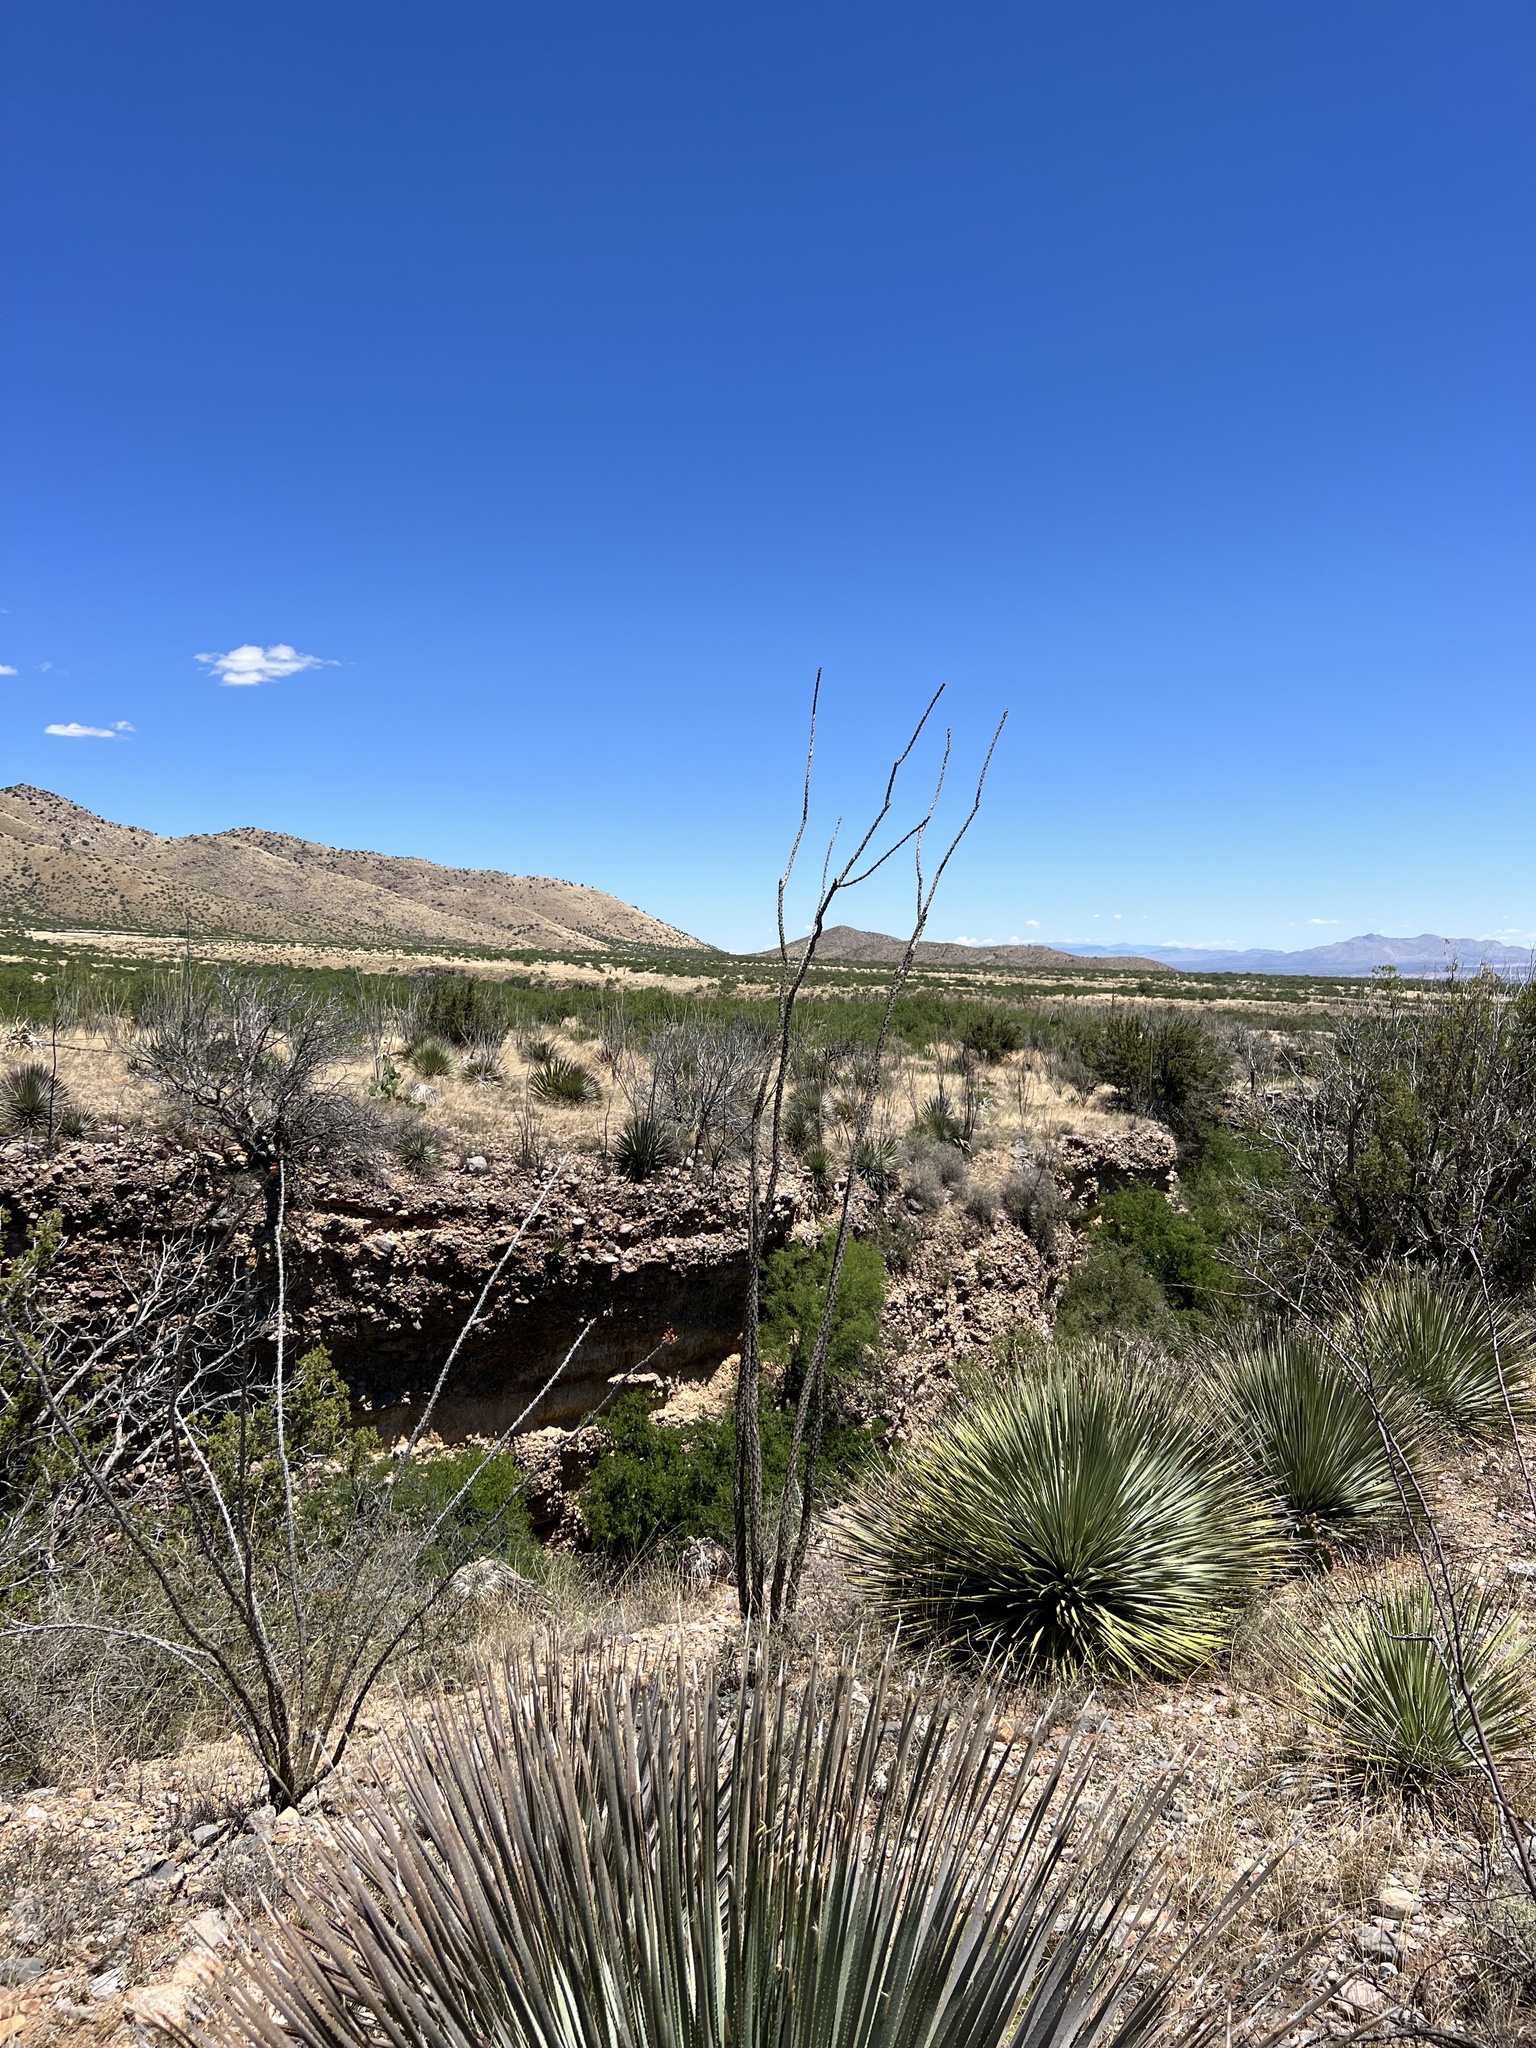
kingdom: Plantae
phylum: Tracheophyta
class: Magnoliopsida
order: Ericales
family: Fouquieriaceae
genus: Fouquieria
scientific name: Fouquieria splendens
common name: Vine-cactus
